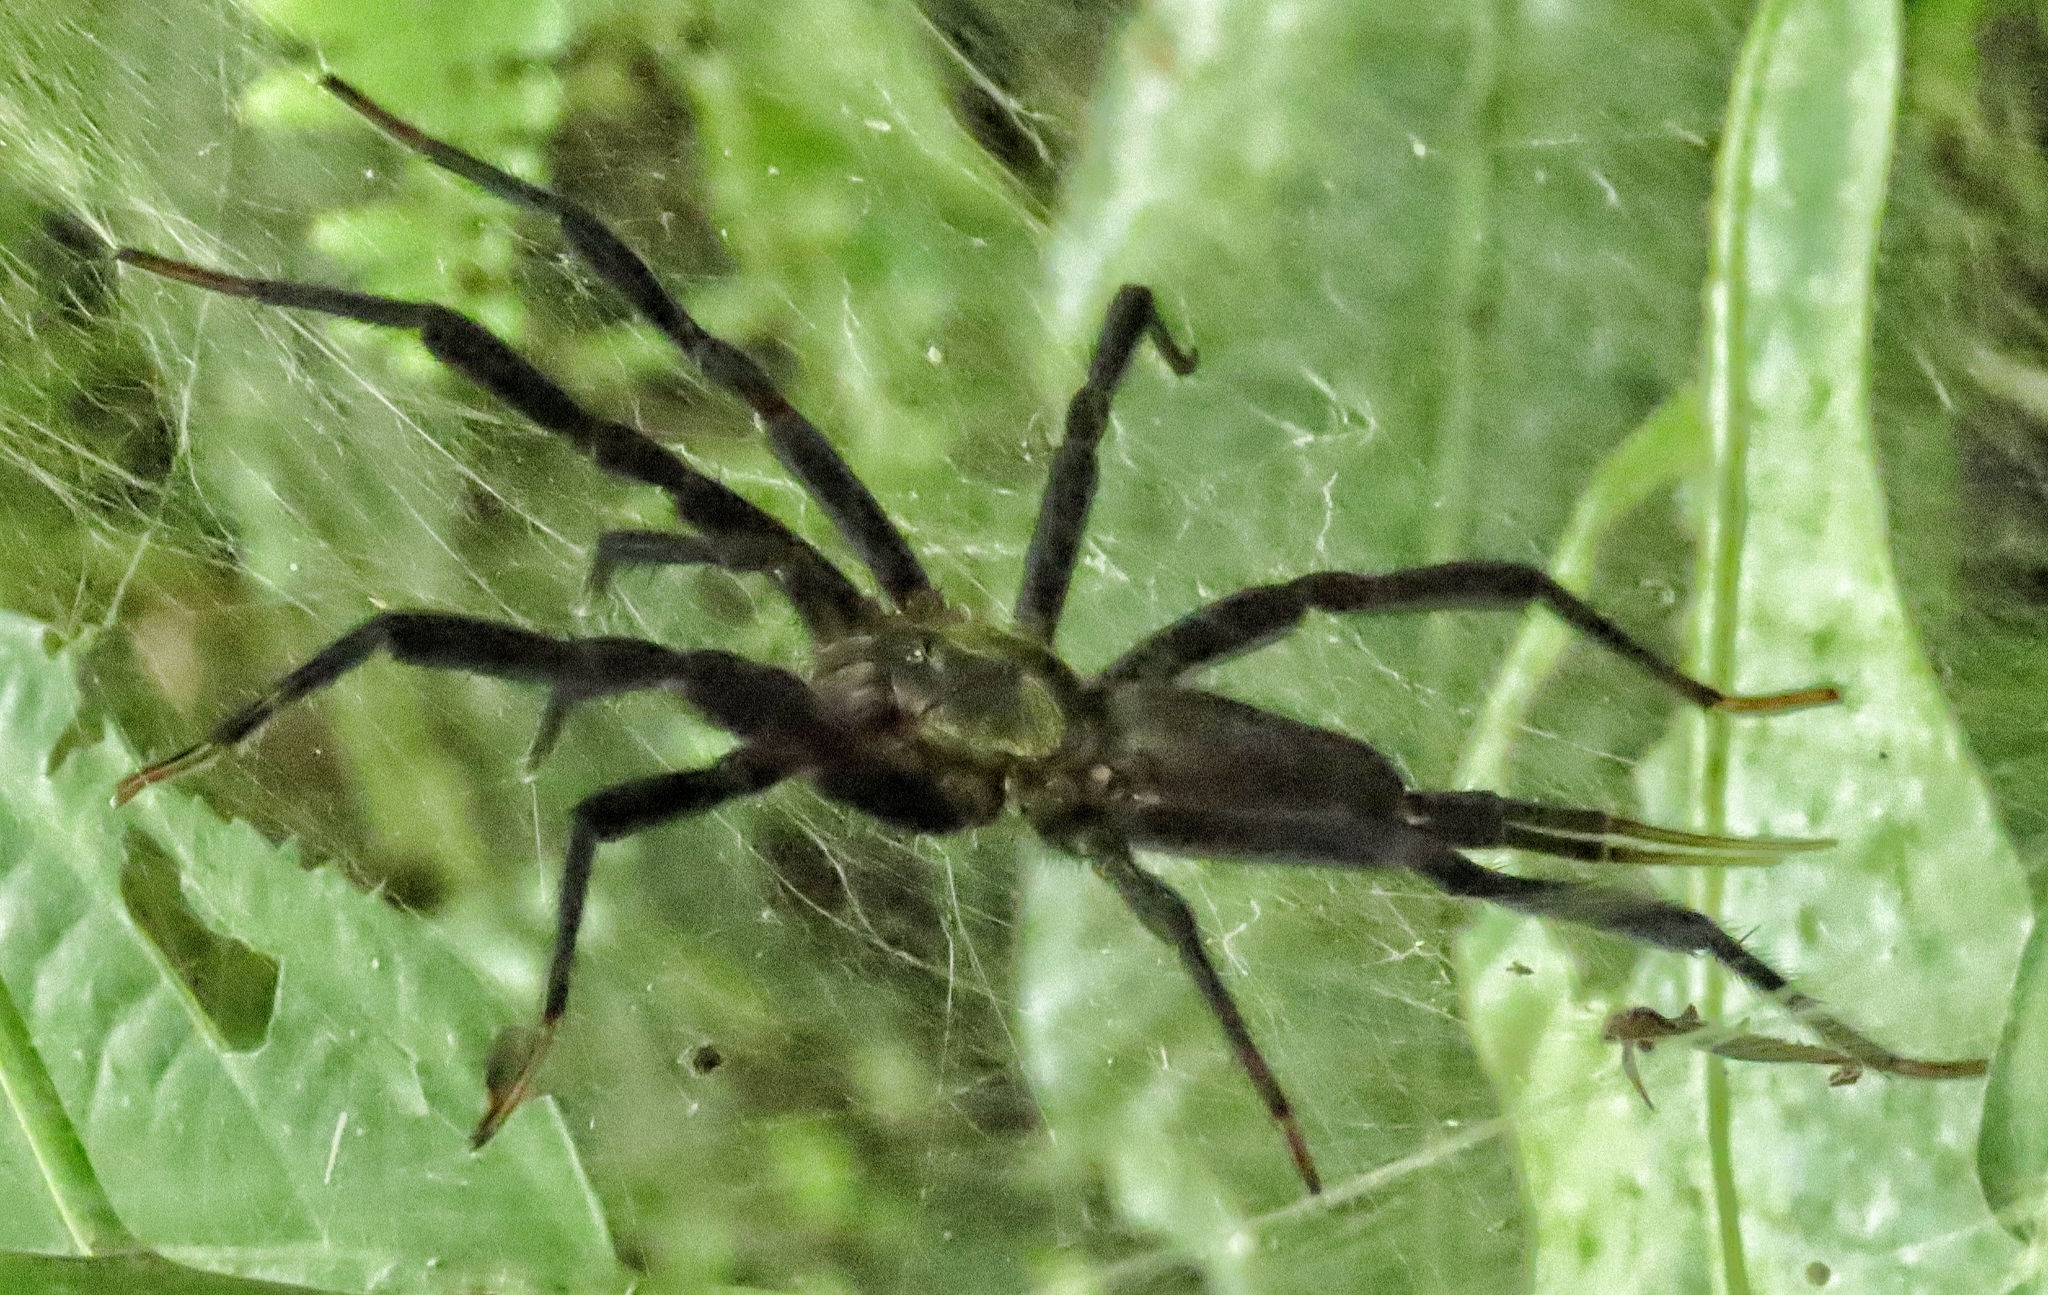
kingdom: Animalia
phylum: Arthropoda
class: Arachnida
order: Araneae
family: Dipluridae
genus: Linothele
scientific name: Linothele sericata
